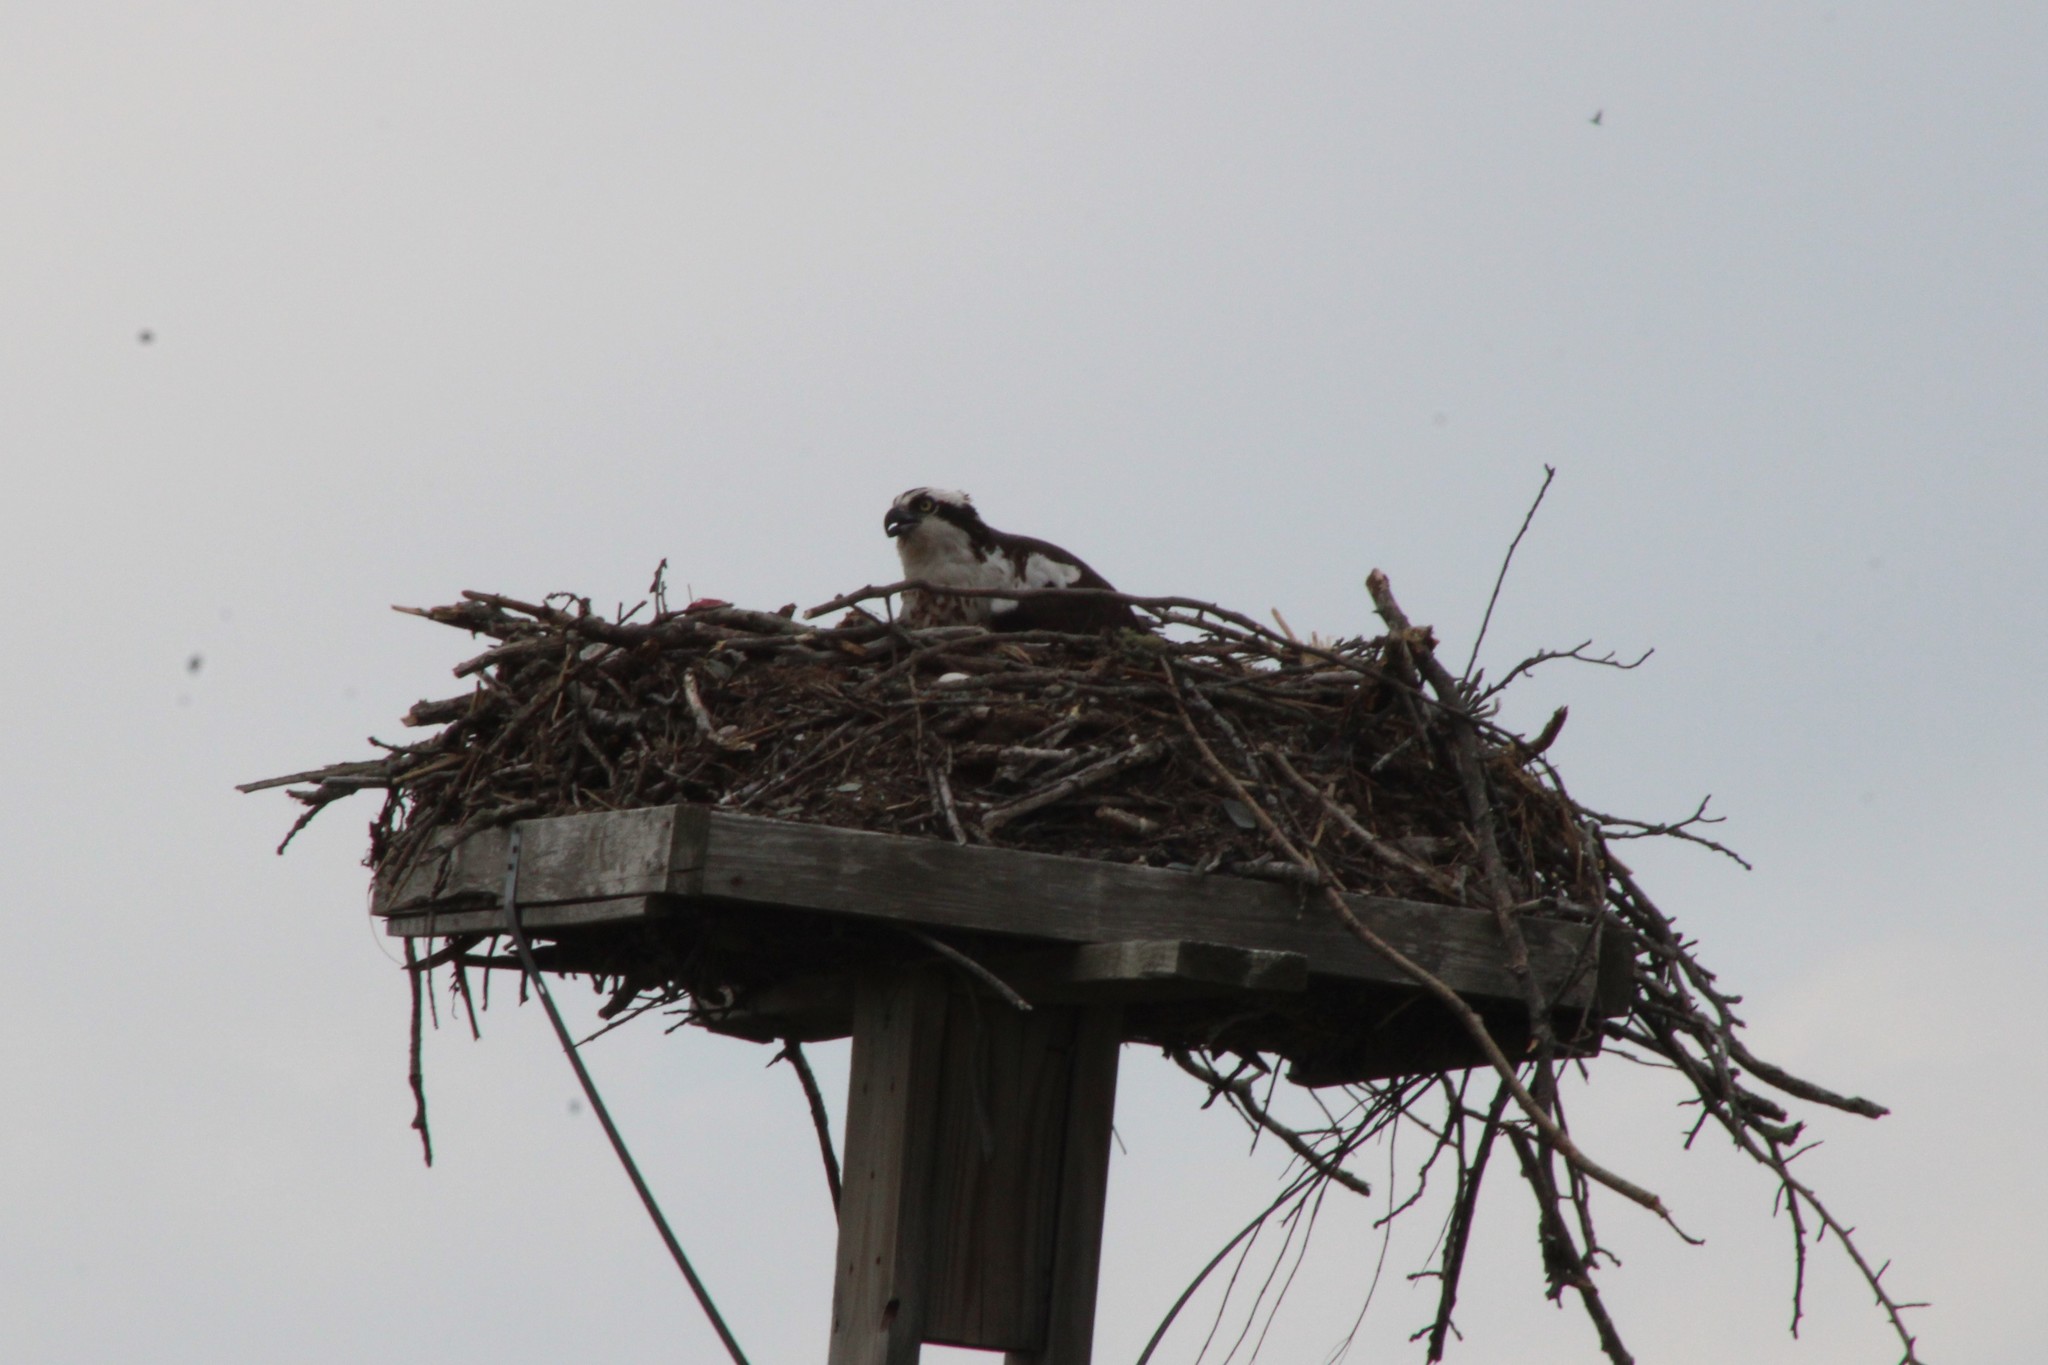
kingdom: Animalia
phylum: Chordata
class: Aves
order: Accipitriformes
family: Pandionidae
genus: Pandion
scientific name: Pandion haliaetus
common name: Osprey
